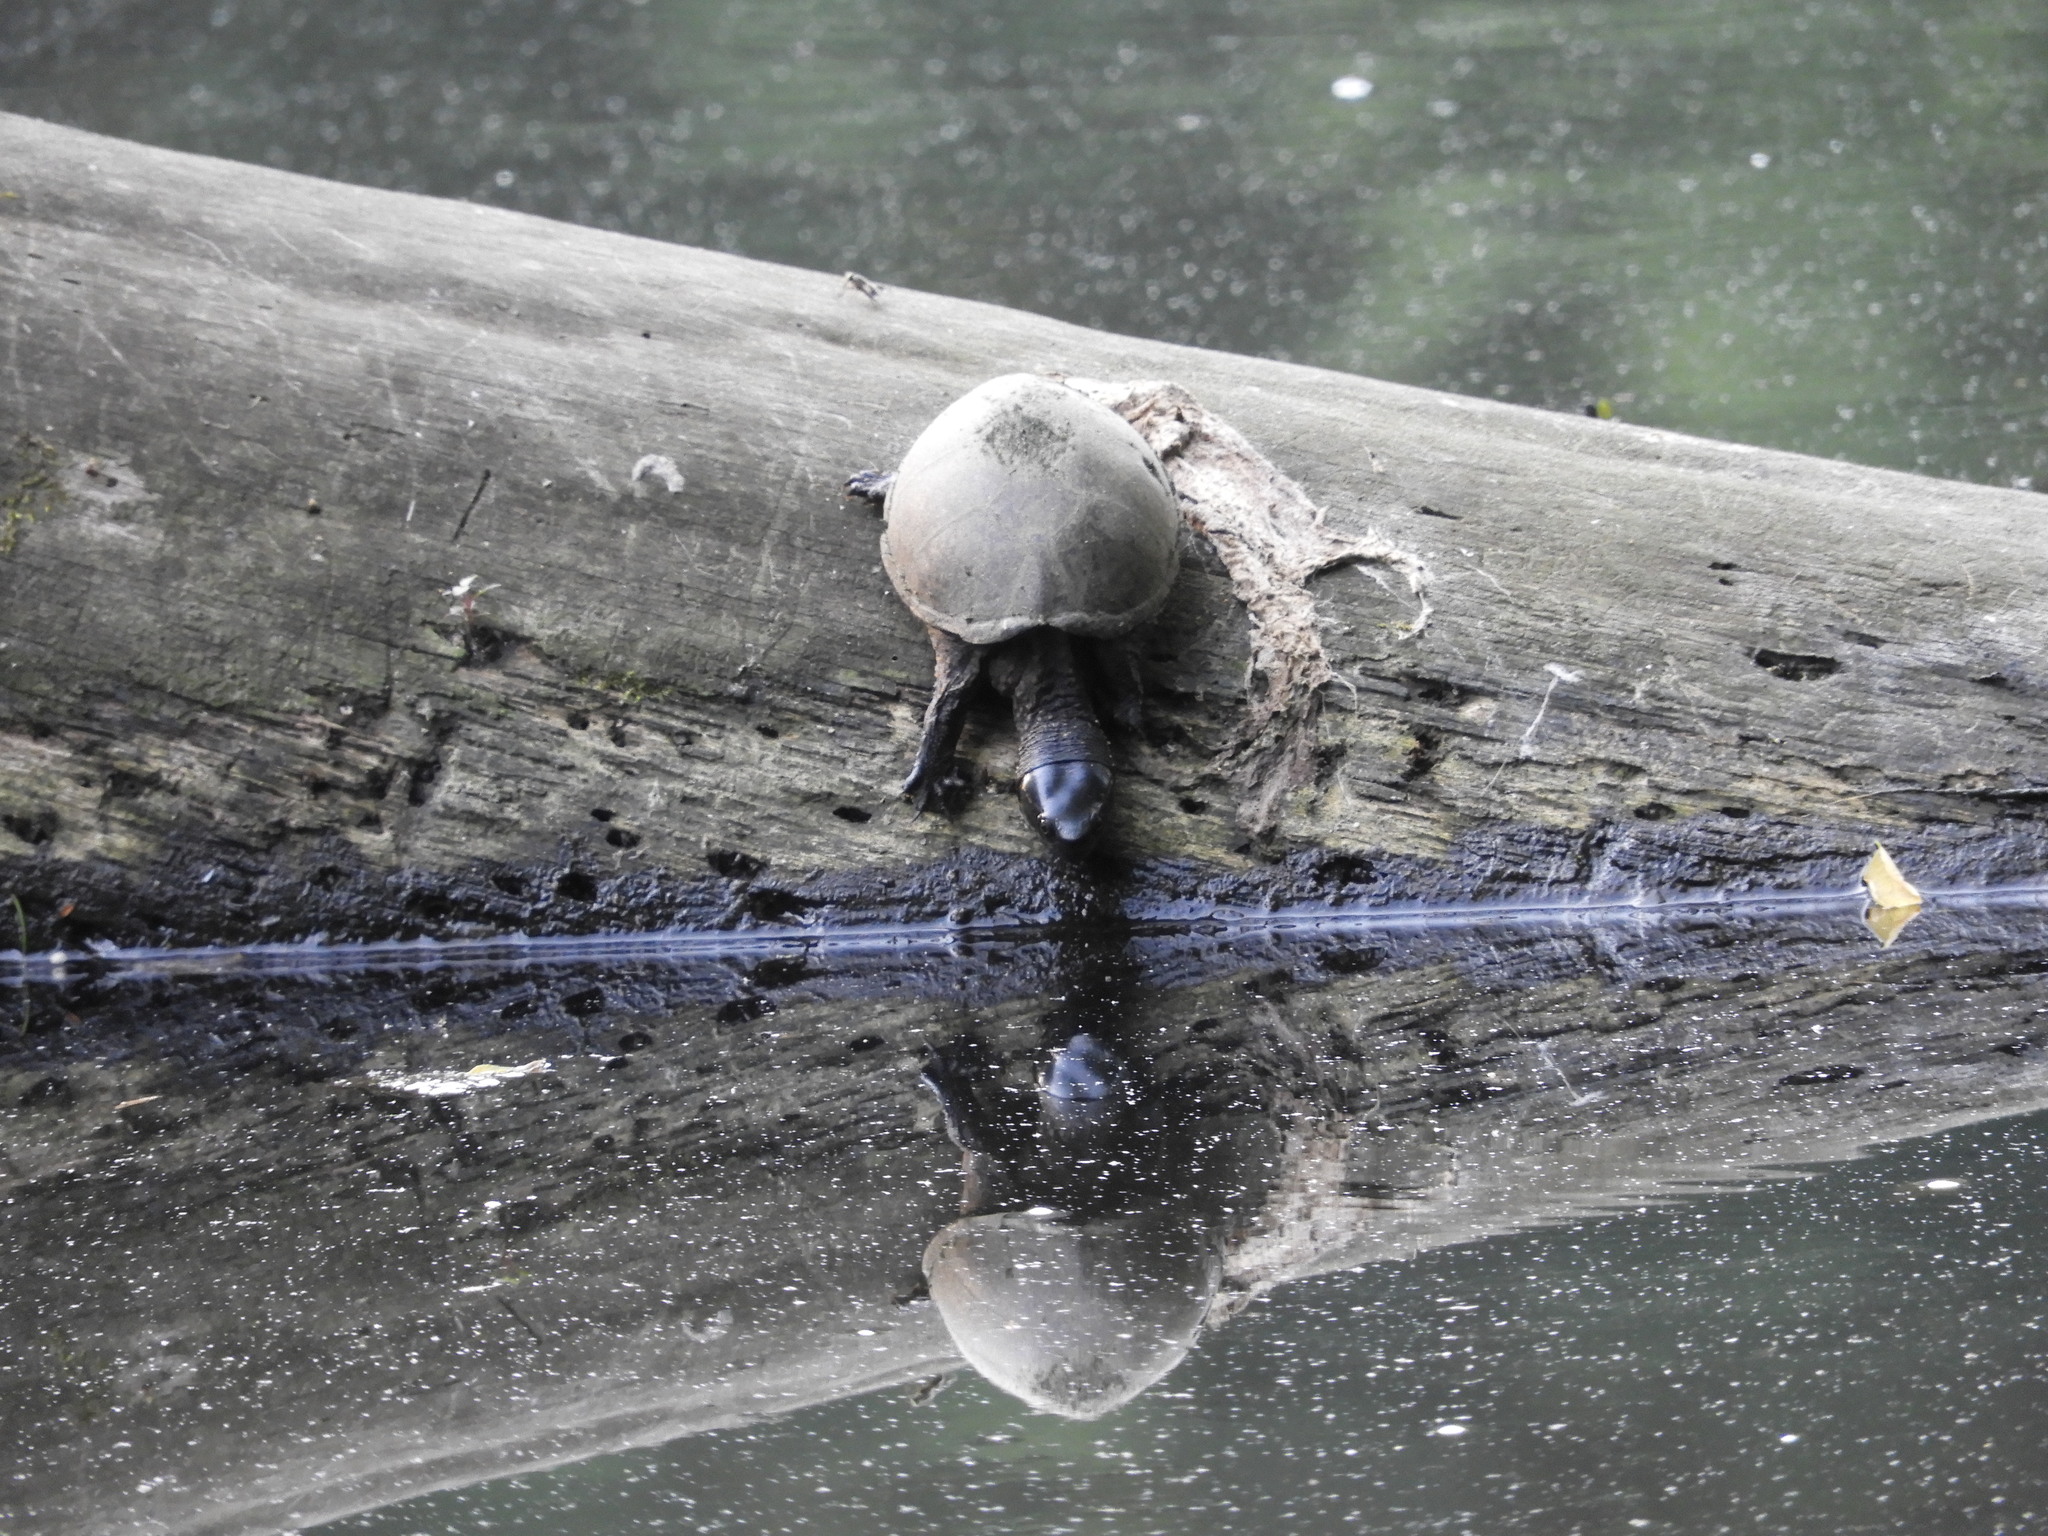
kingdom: Animalia
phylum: Chordata
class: Testudines
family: Kinosternidae
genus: Sternotherus
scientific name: Sternotherus odoratus
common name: Common musk turtle
